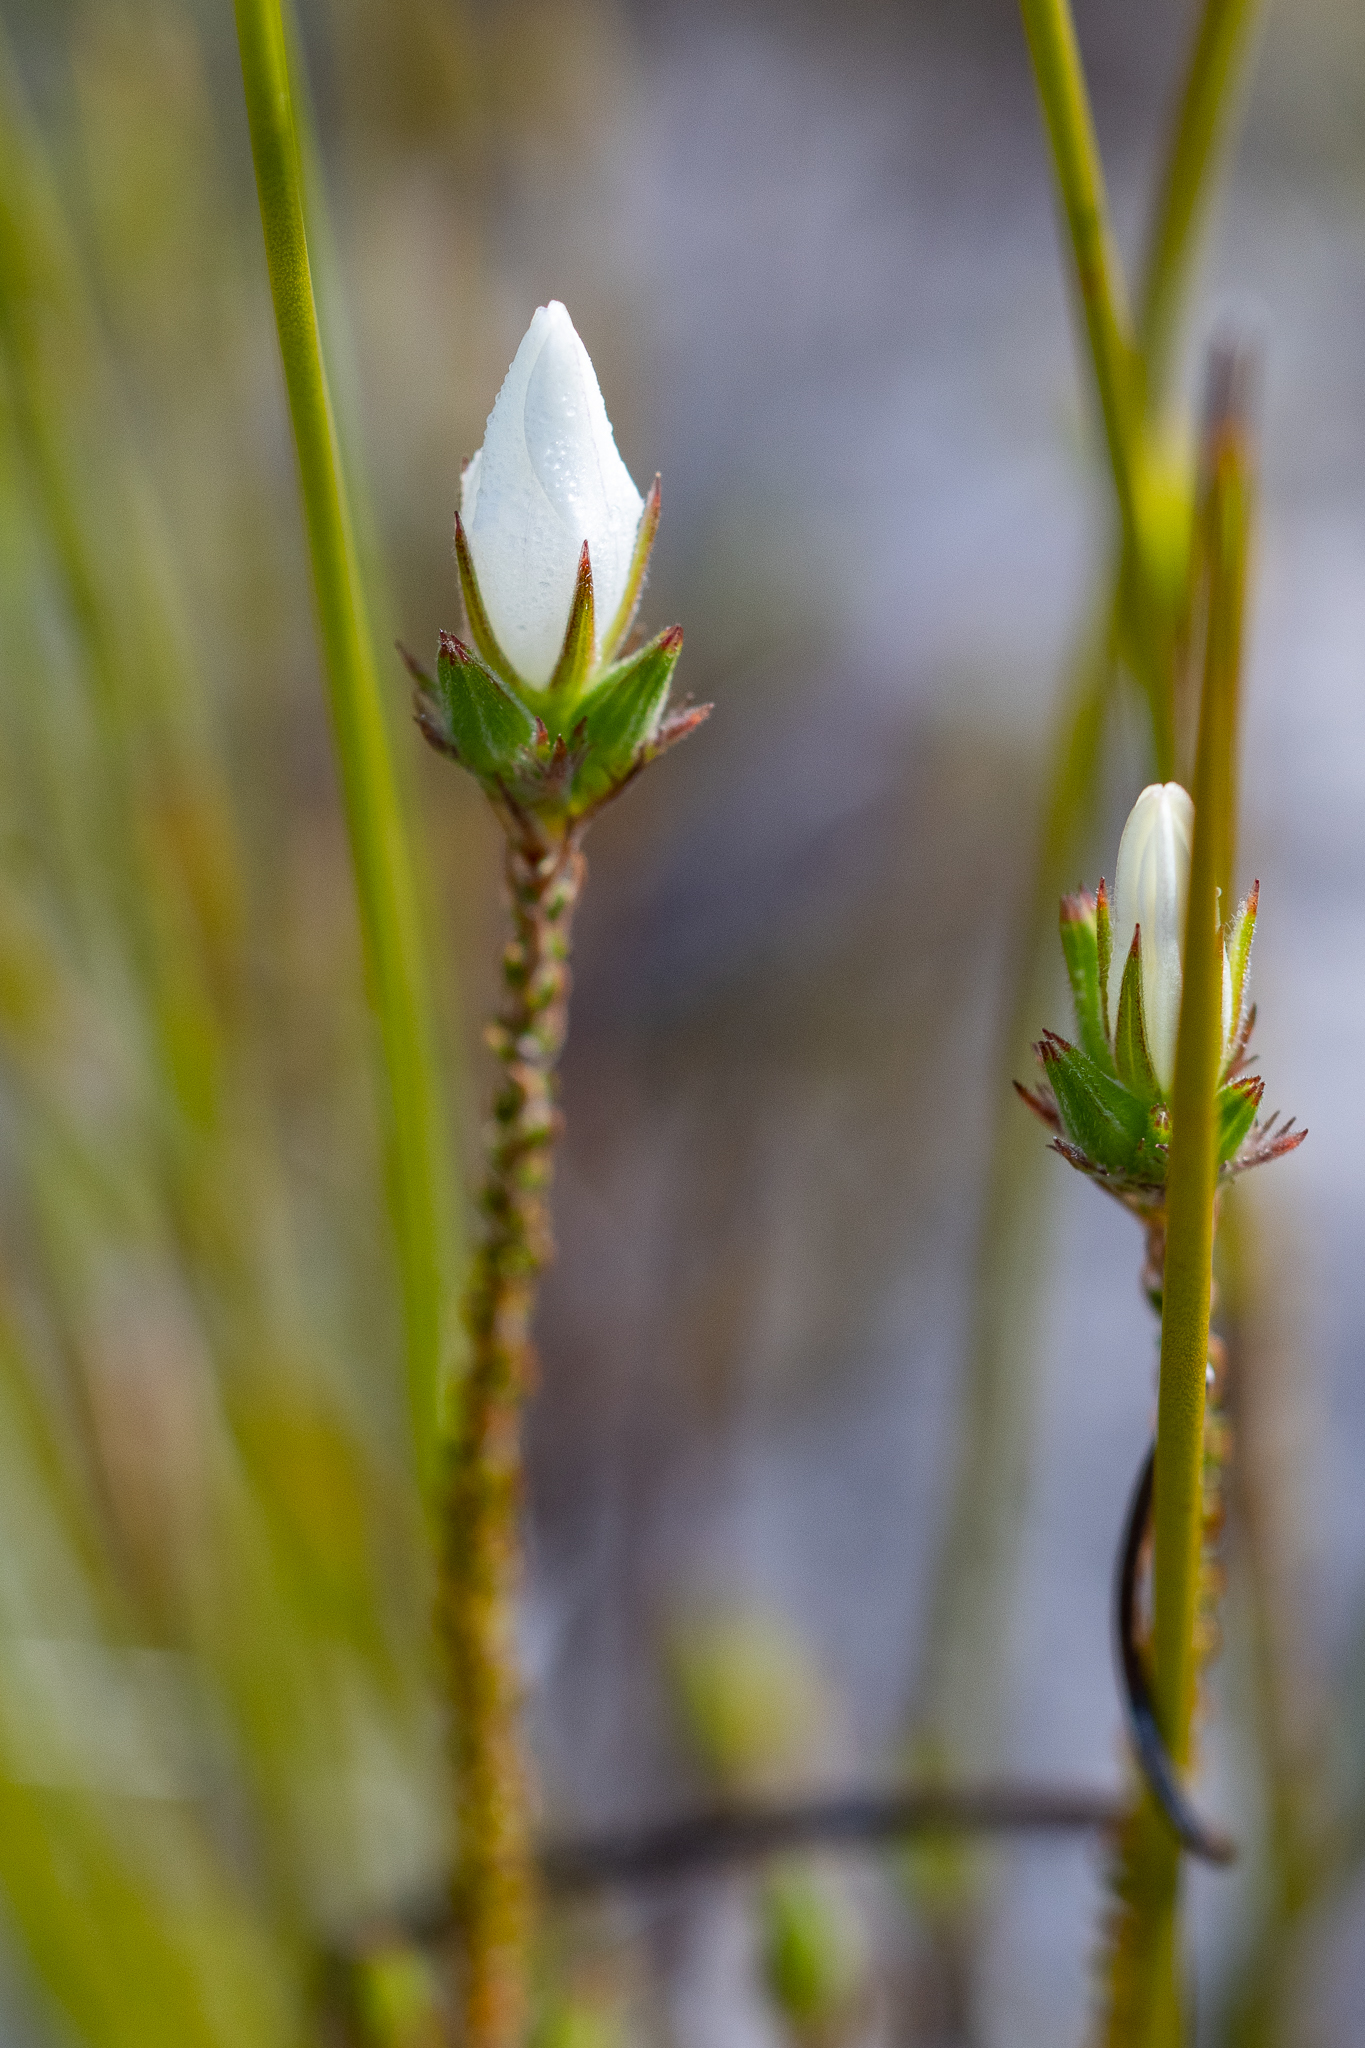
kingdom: Plantae
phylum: Tracheophyta
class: Magnoliopsida
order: Asterales
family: Campanulaceae
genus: Roella
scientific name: Roella dregeana
